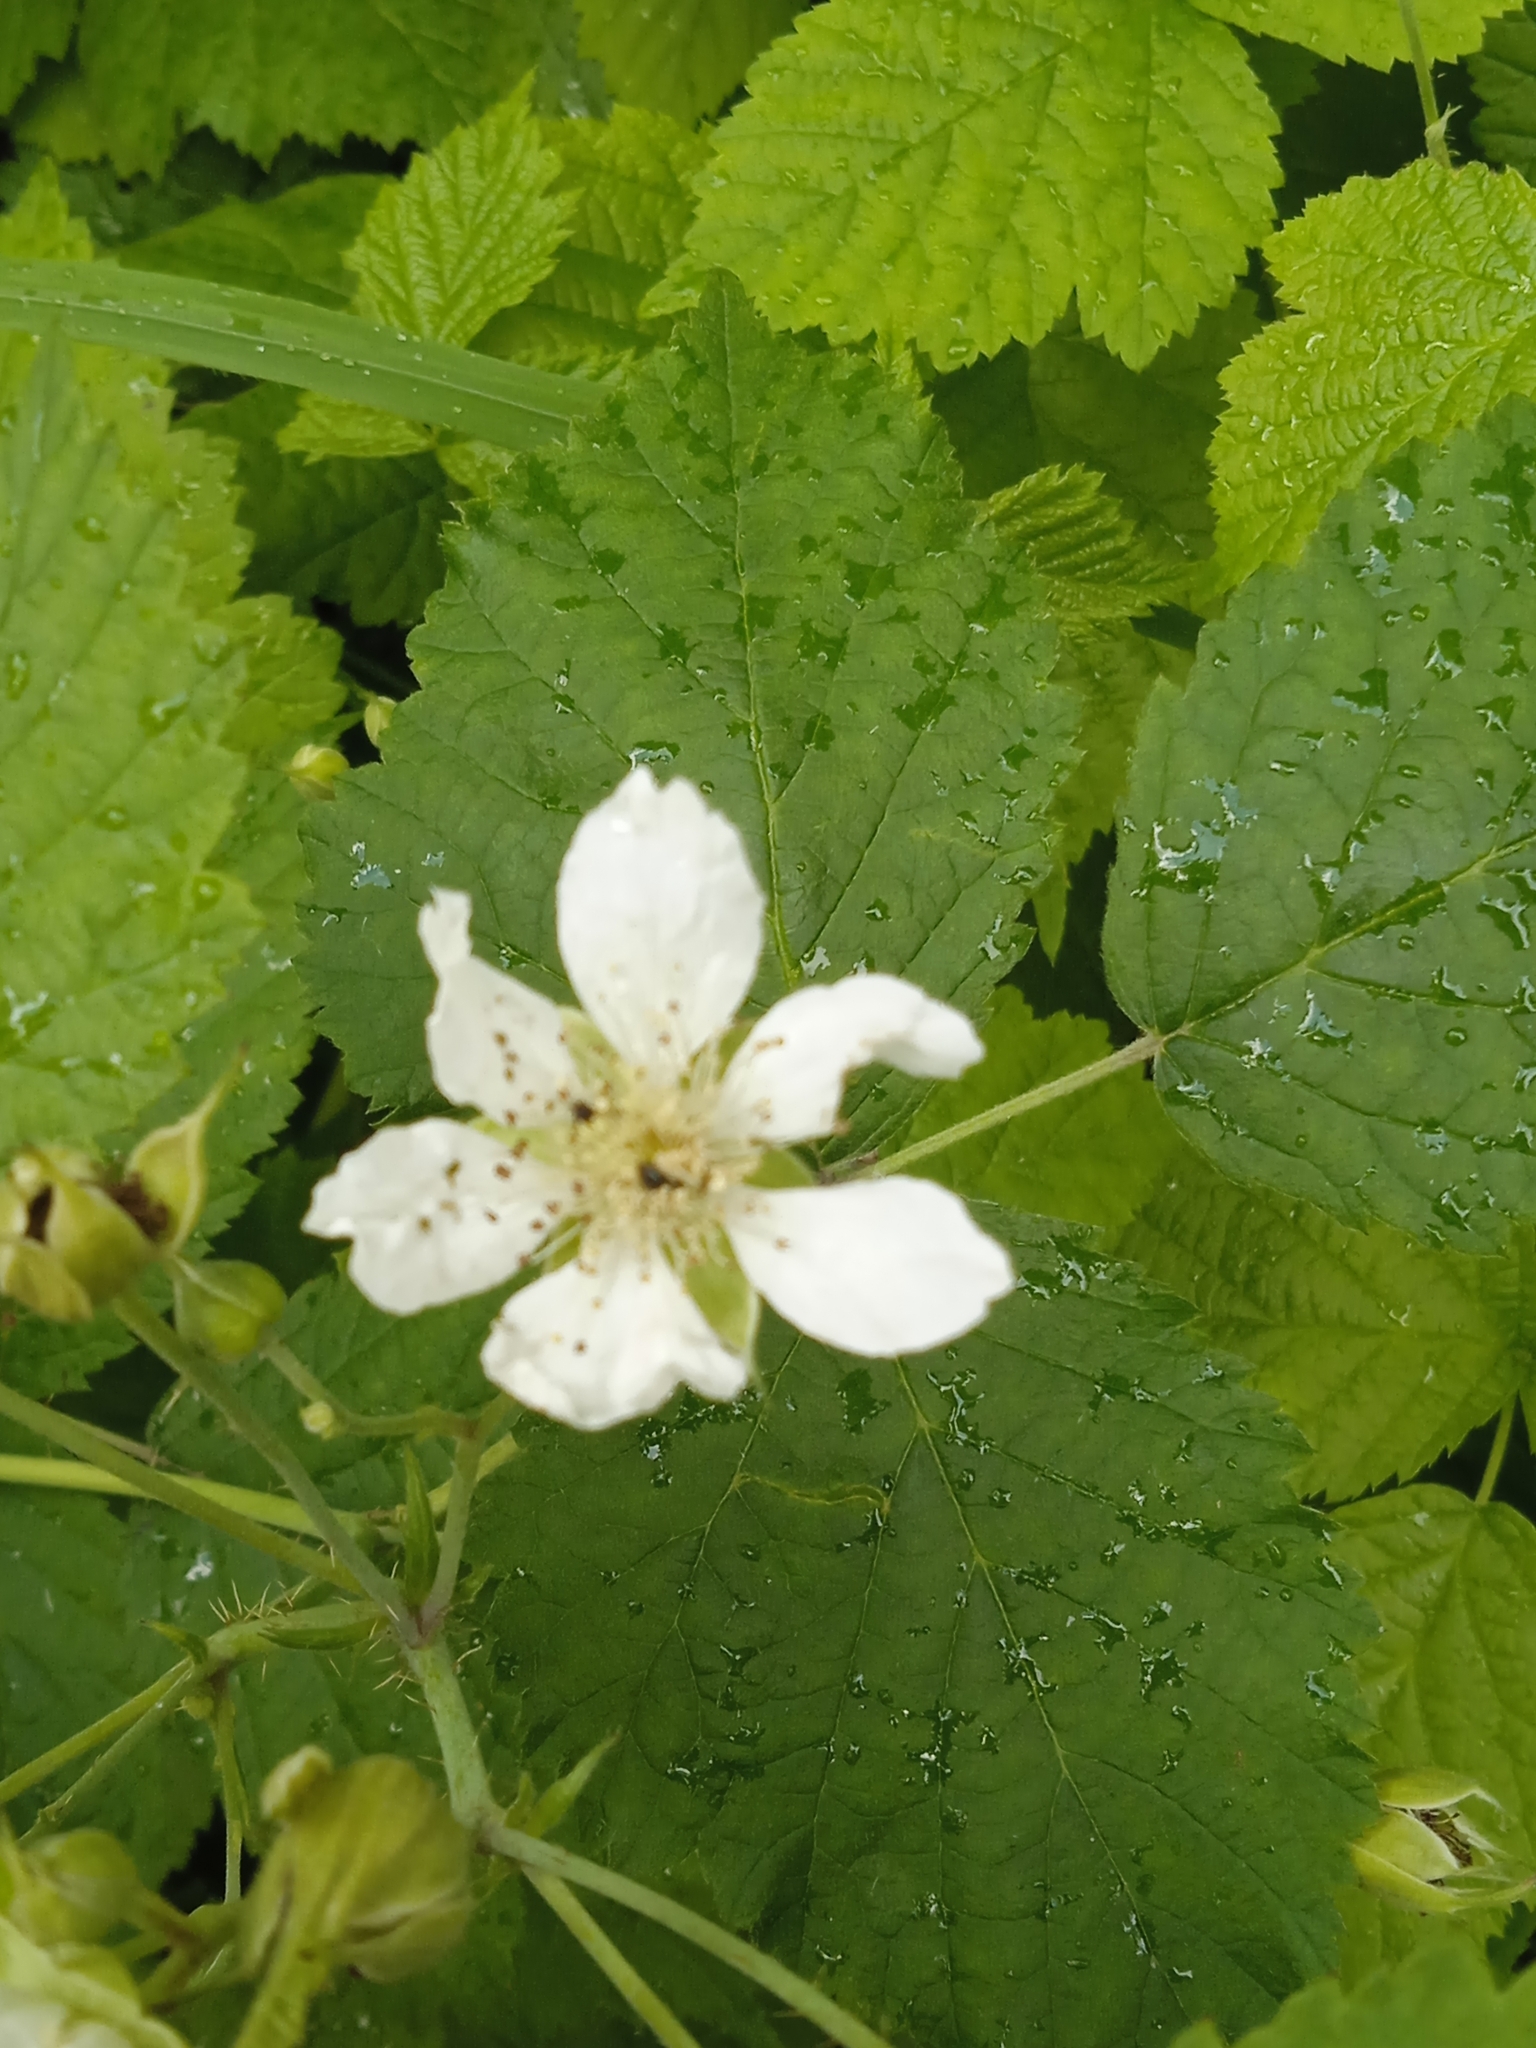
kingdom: Plantae
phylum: Tracheophyta
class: Magnoliopsida
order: Rosales
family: Rosaceae
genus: Rubus
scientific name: Rubus caesius
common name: Dewberry
